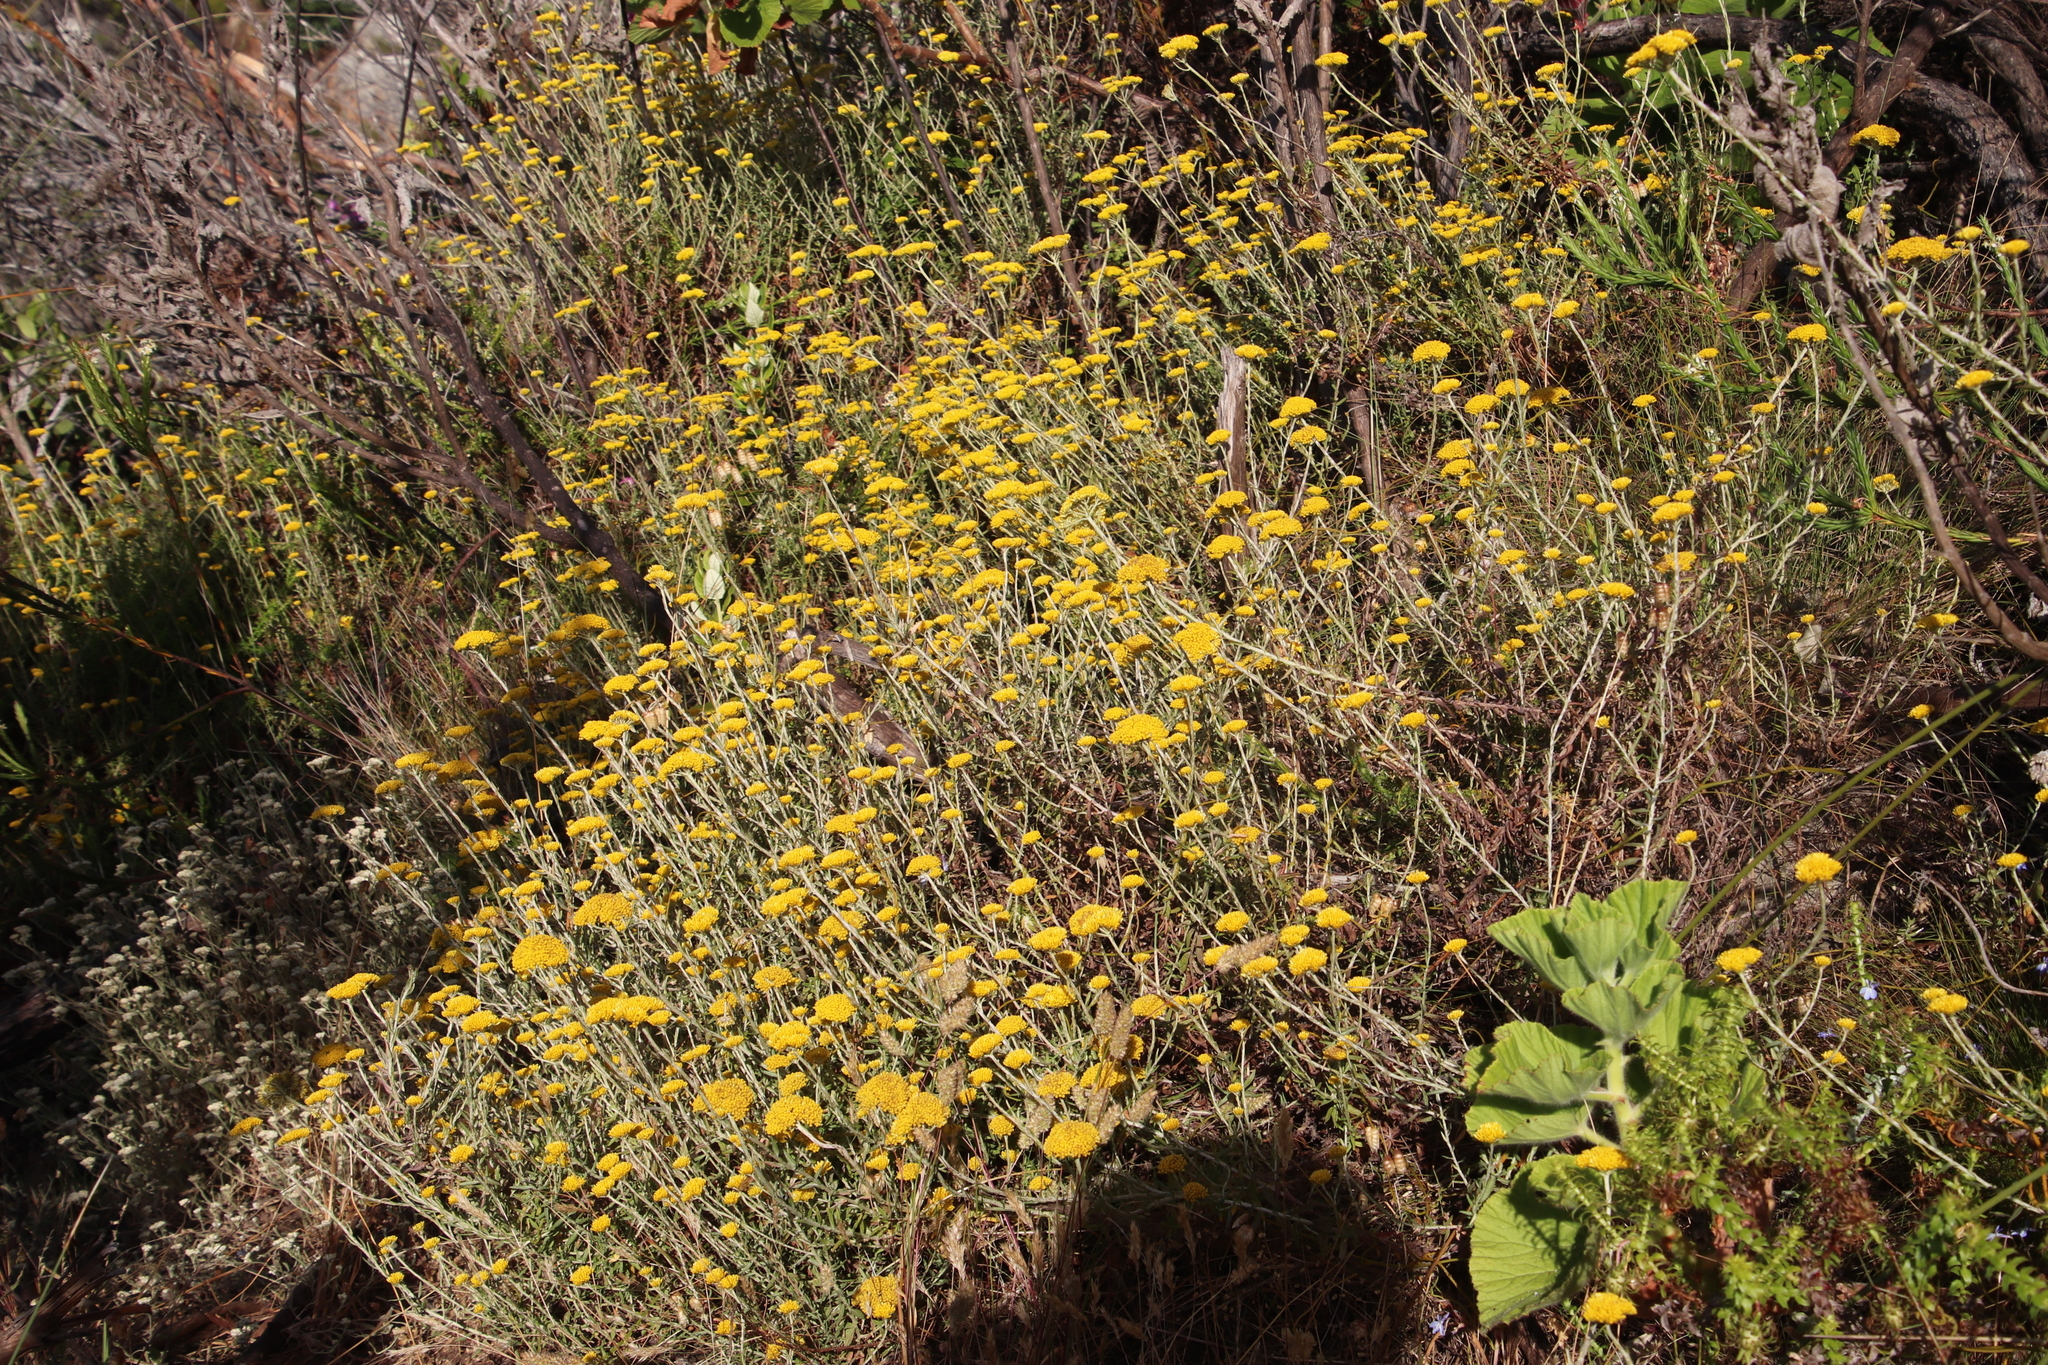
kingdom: Plantae
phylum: Tracheophyta
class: Magnoliopsida
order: Asterales
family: Asteraceae
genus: Helichrysum
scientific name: Helichrysum cymosum
